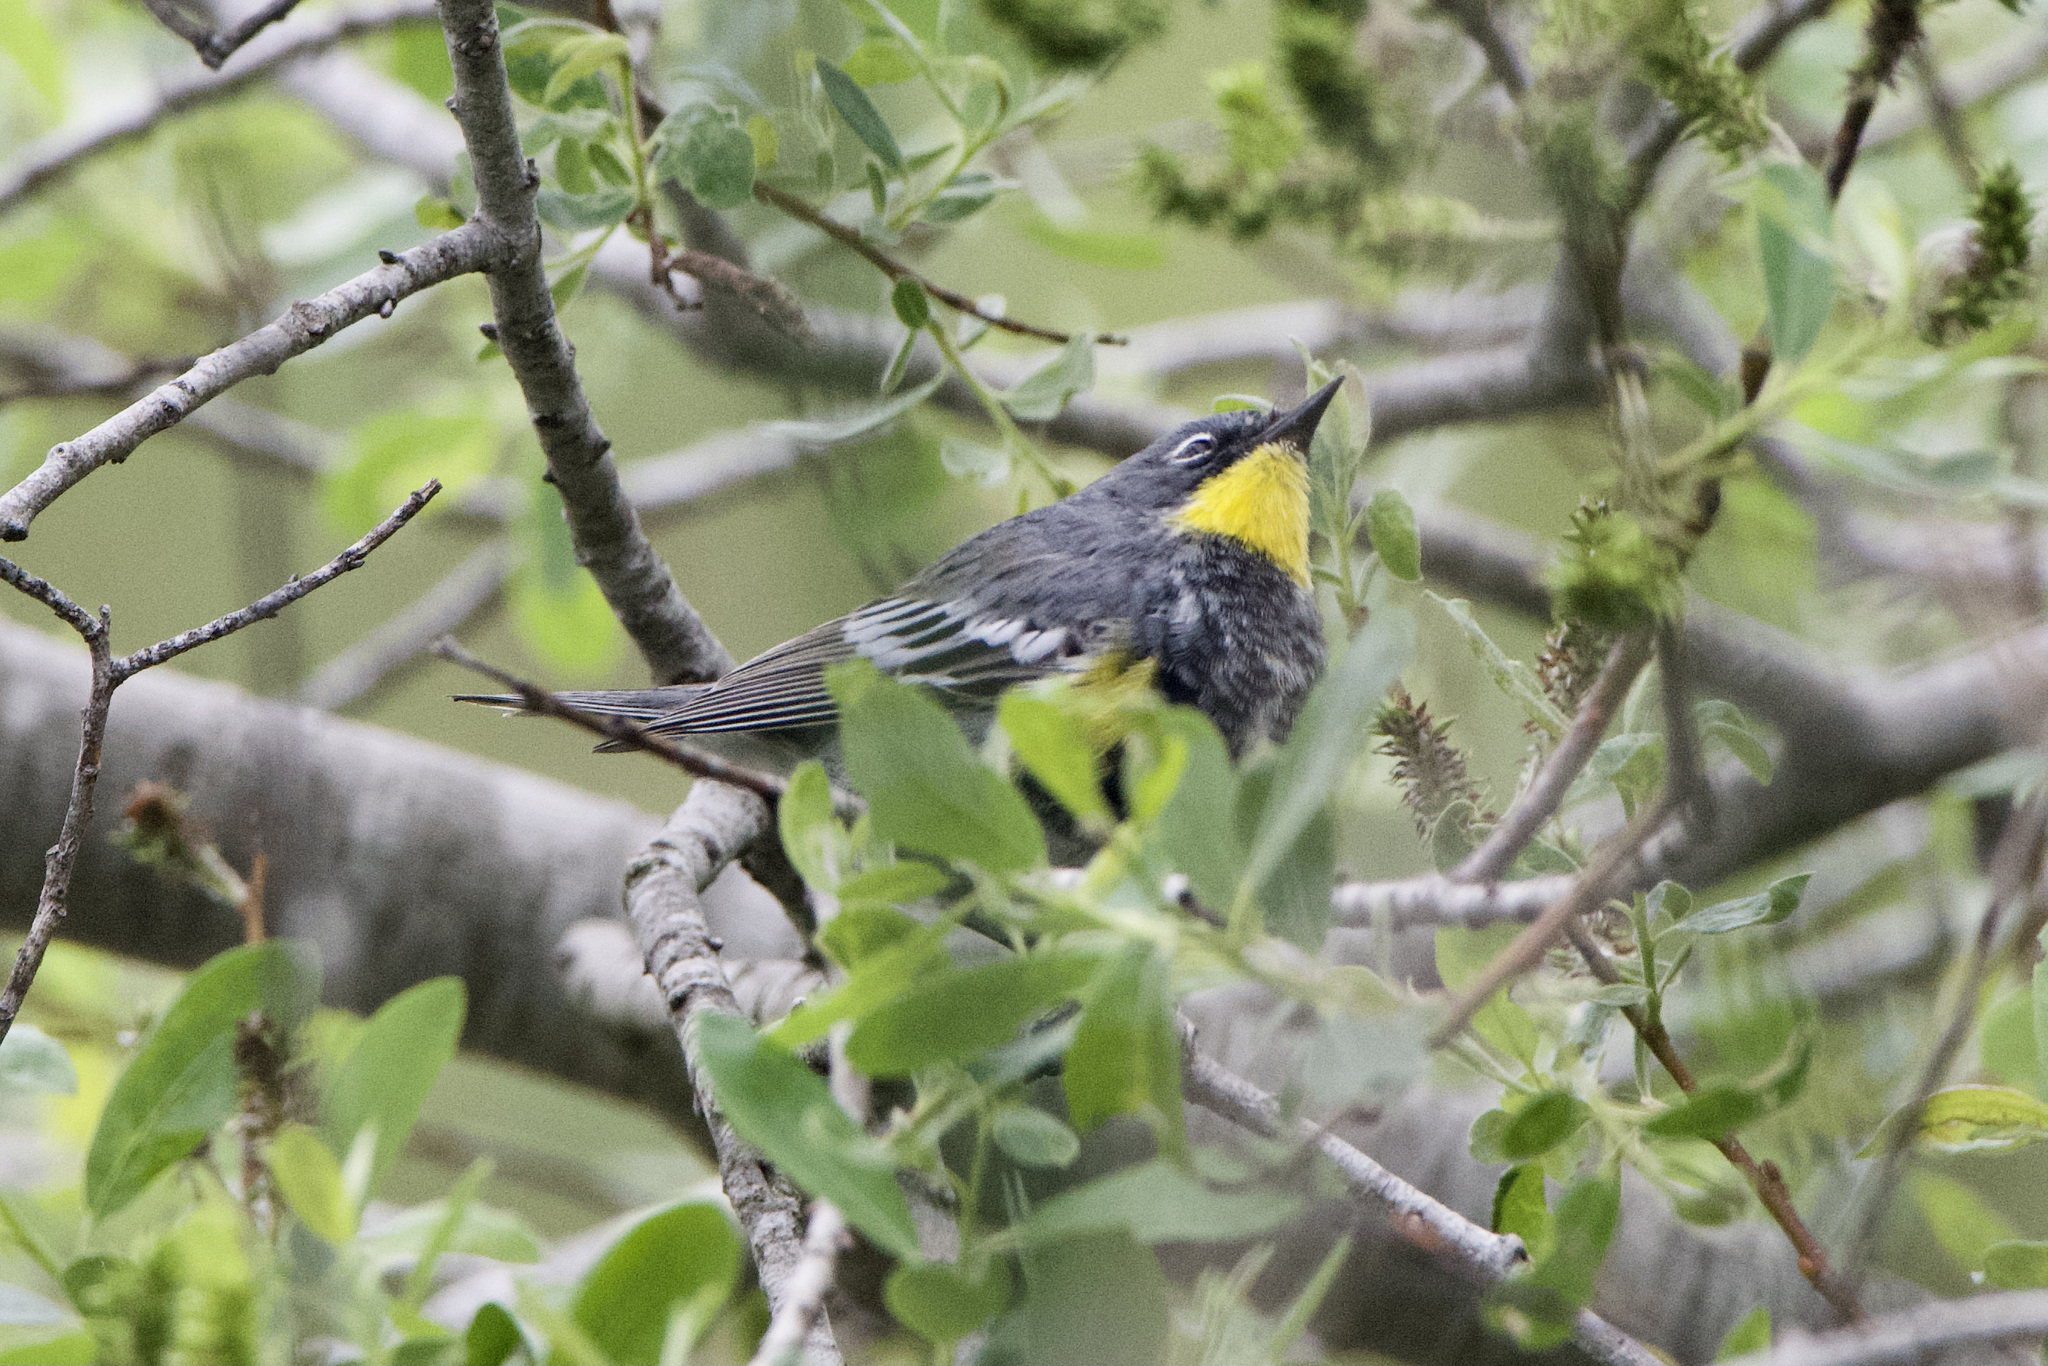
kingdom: Animalia
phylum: Chordata
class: Aves
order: Passeriformes
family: Parulidae
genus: Setophaga
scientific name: Setophaga auduboni
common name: Audubon's warbler
